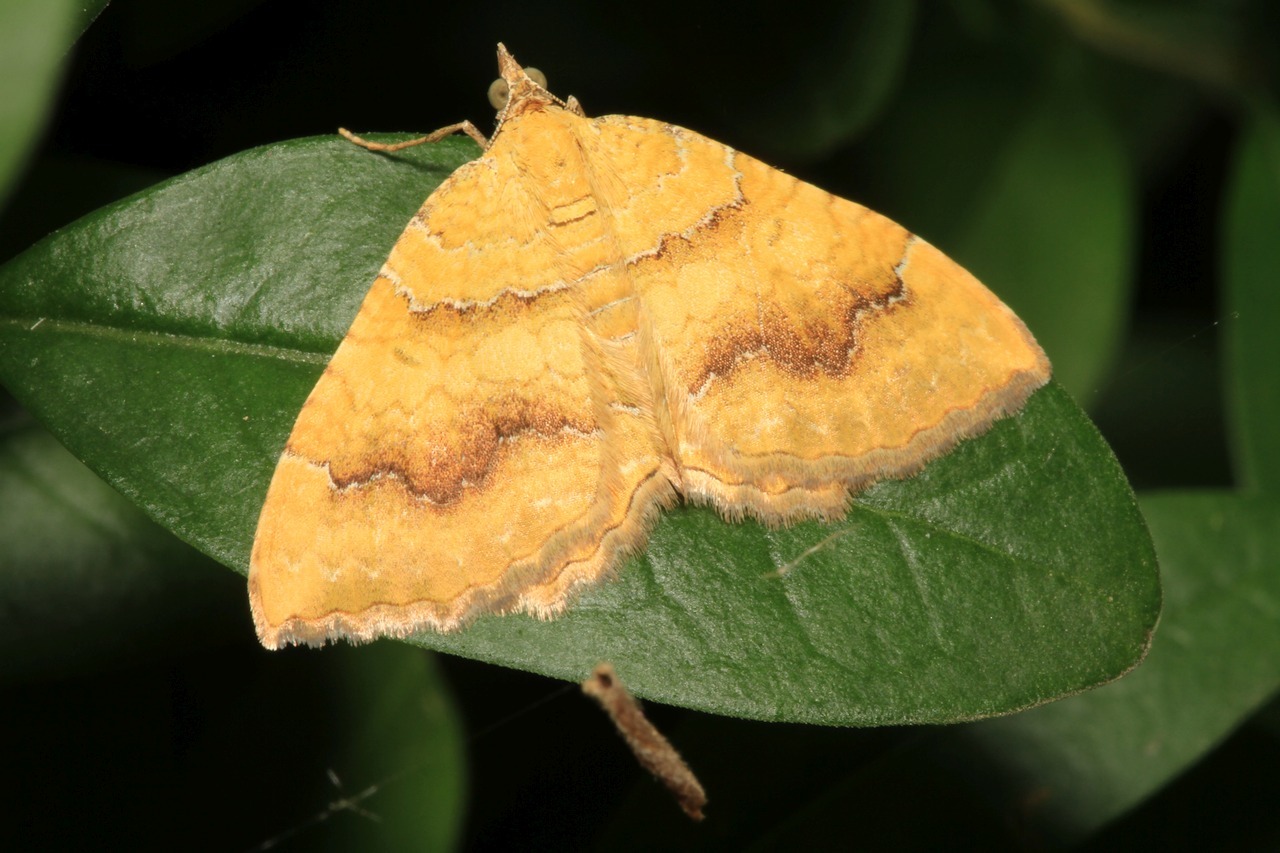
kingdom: Animalia
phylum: Arthropoda
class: Insecta
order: Lepidoptera
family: Geometridae
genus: Camptogramma
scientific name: Camptogramma bilineata
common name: Yellow shell
